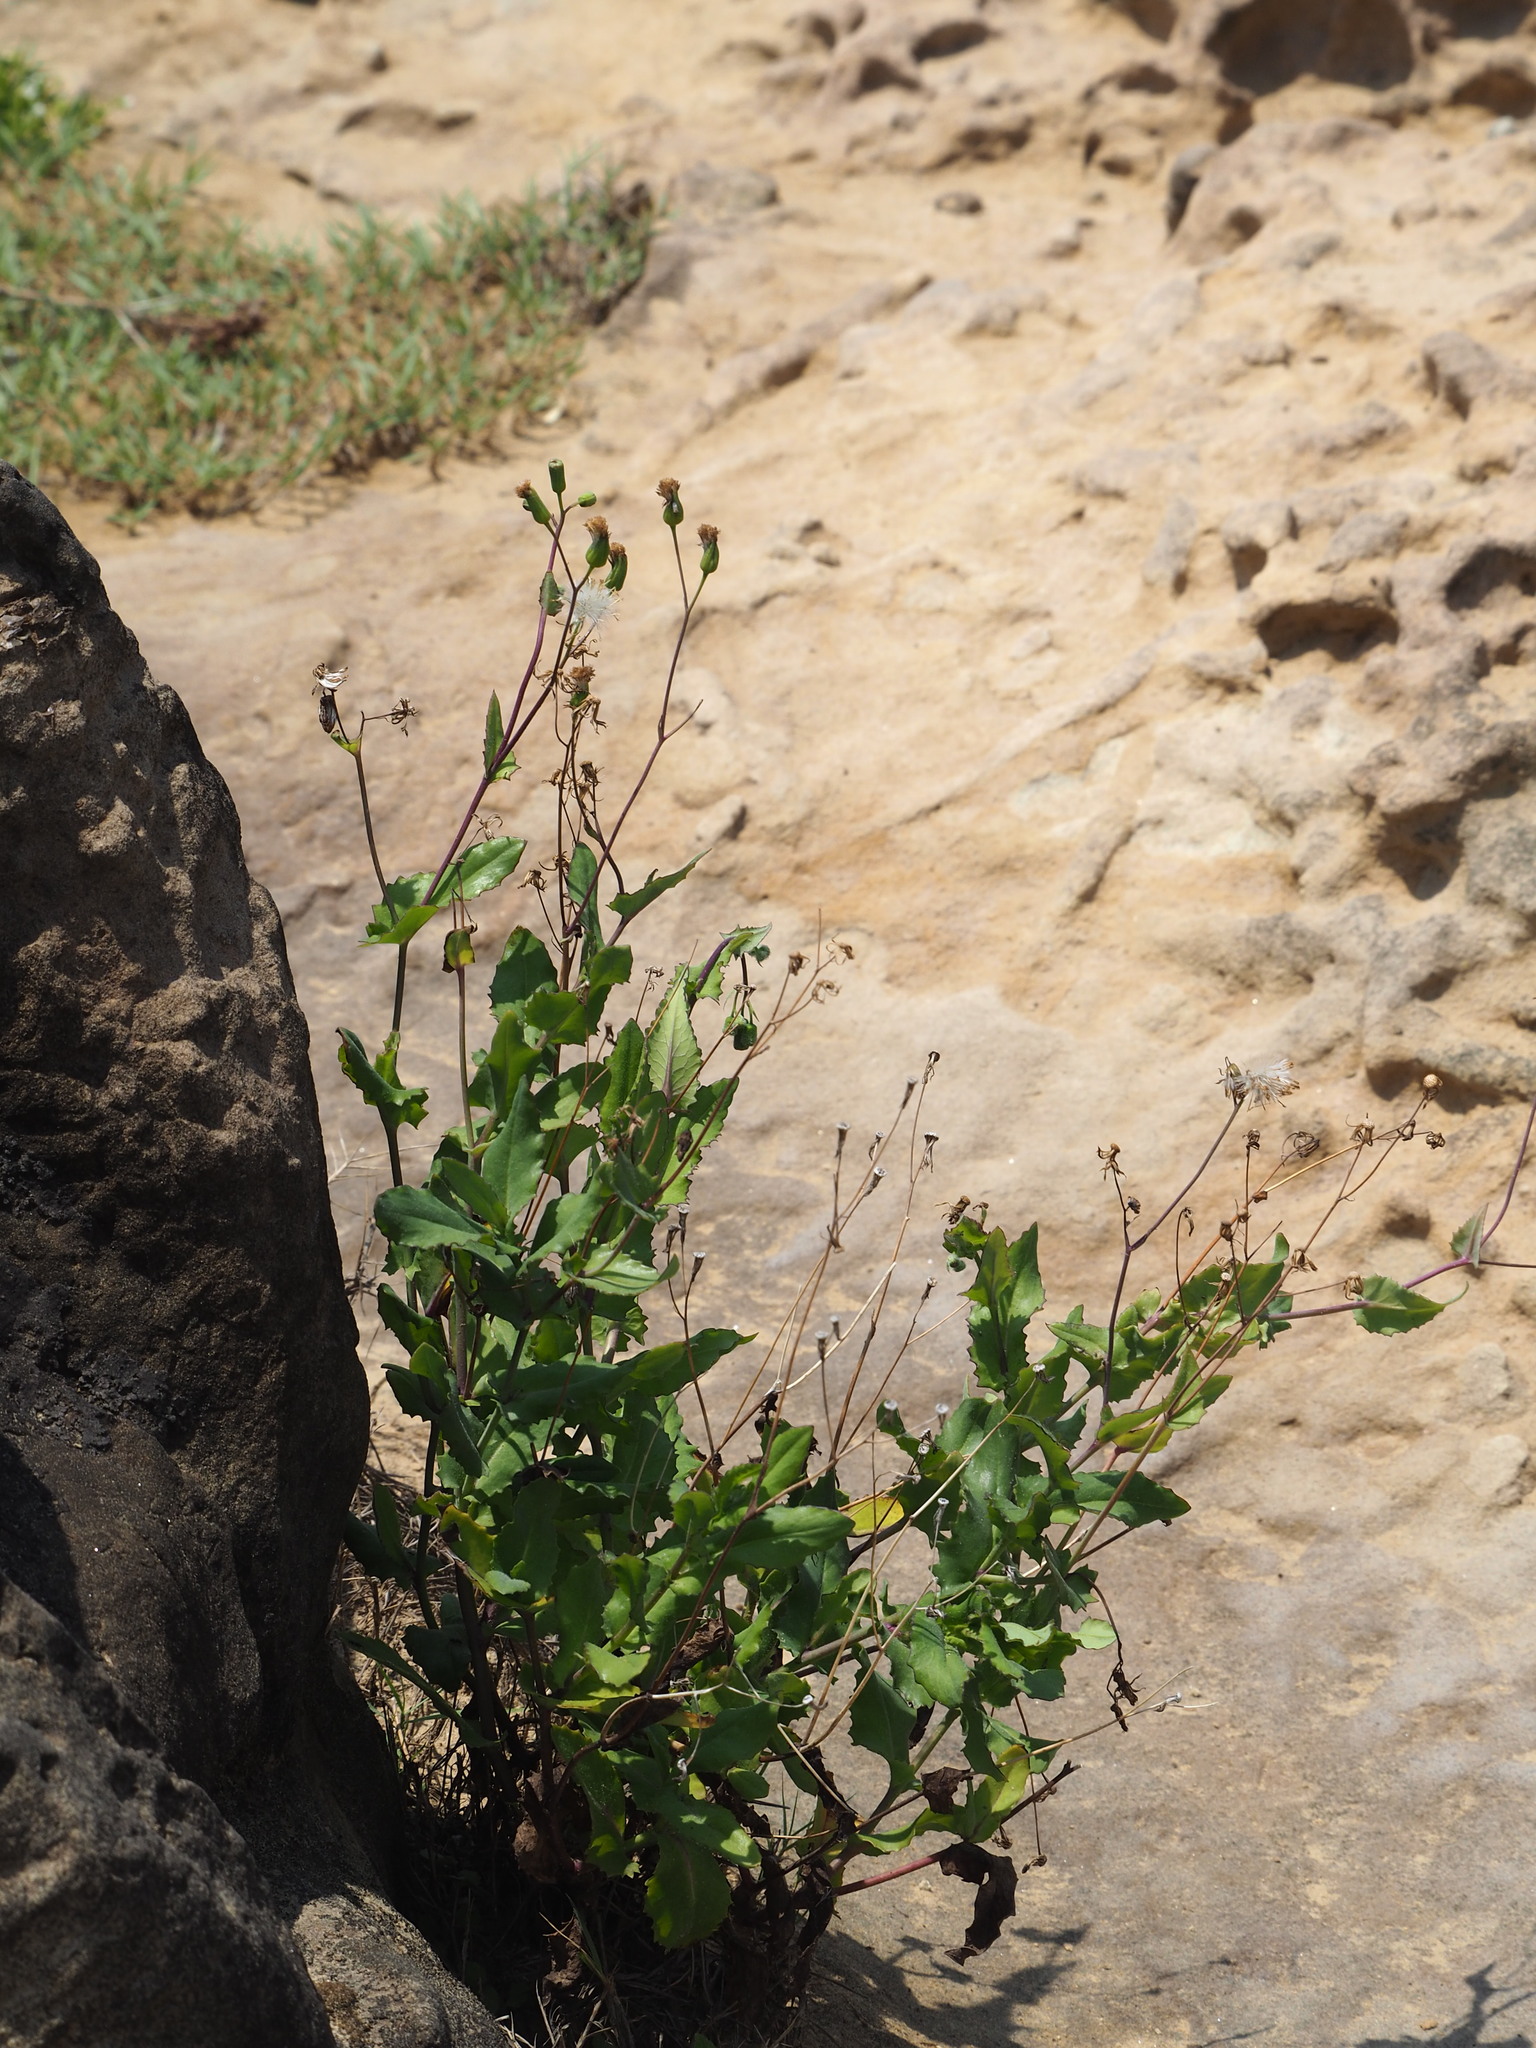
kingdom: Plantae
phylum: Tracheophyta
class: Magnoliopsida
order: Asterales
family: Asteraceae
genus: Emilia
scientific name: Emilia javanica
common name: Tassel-flower
